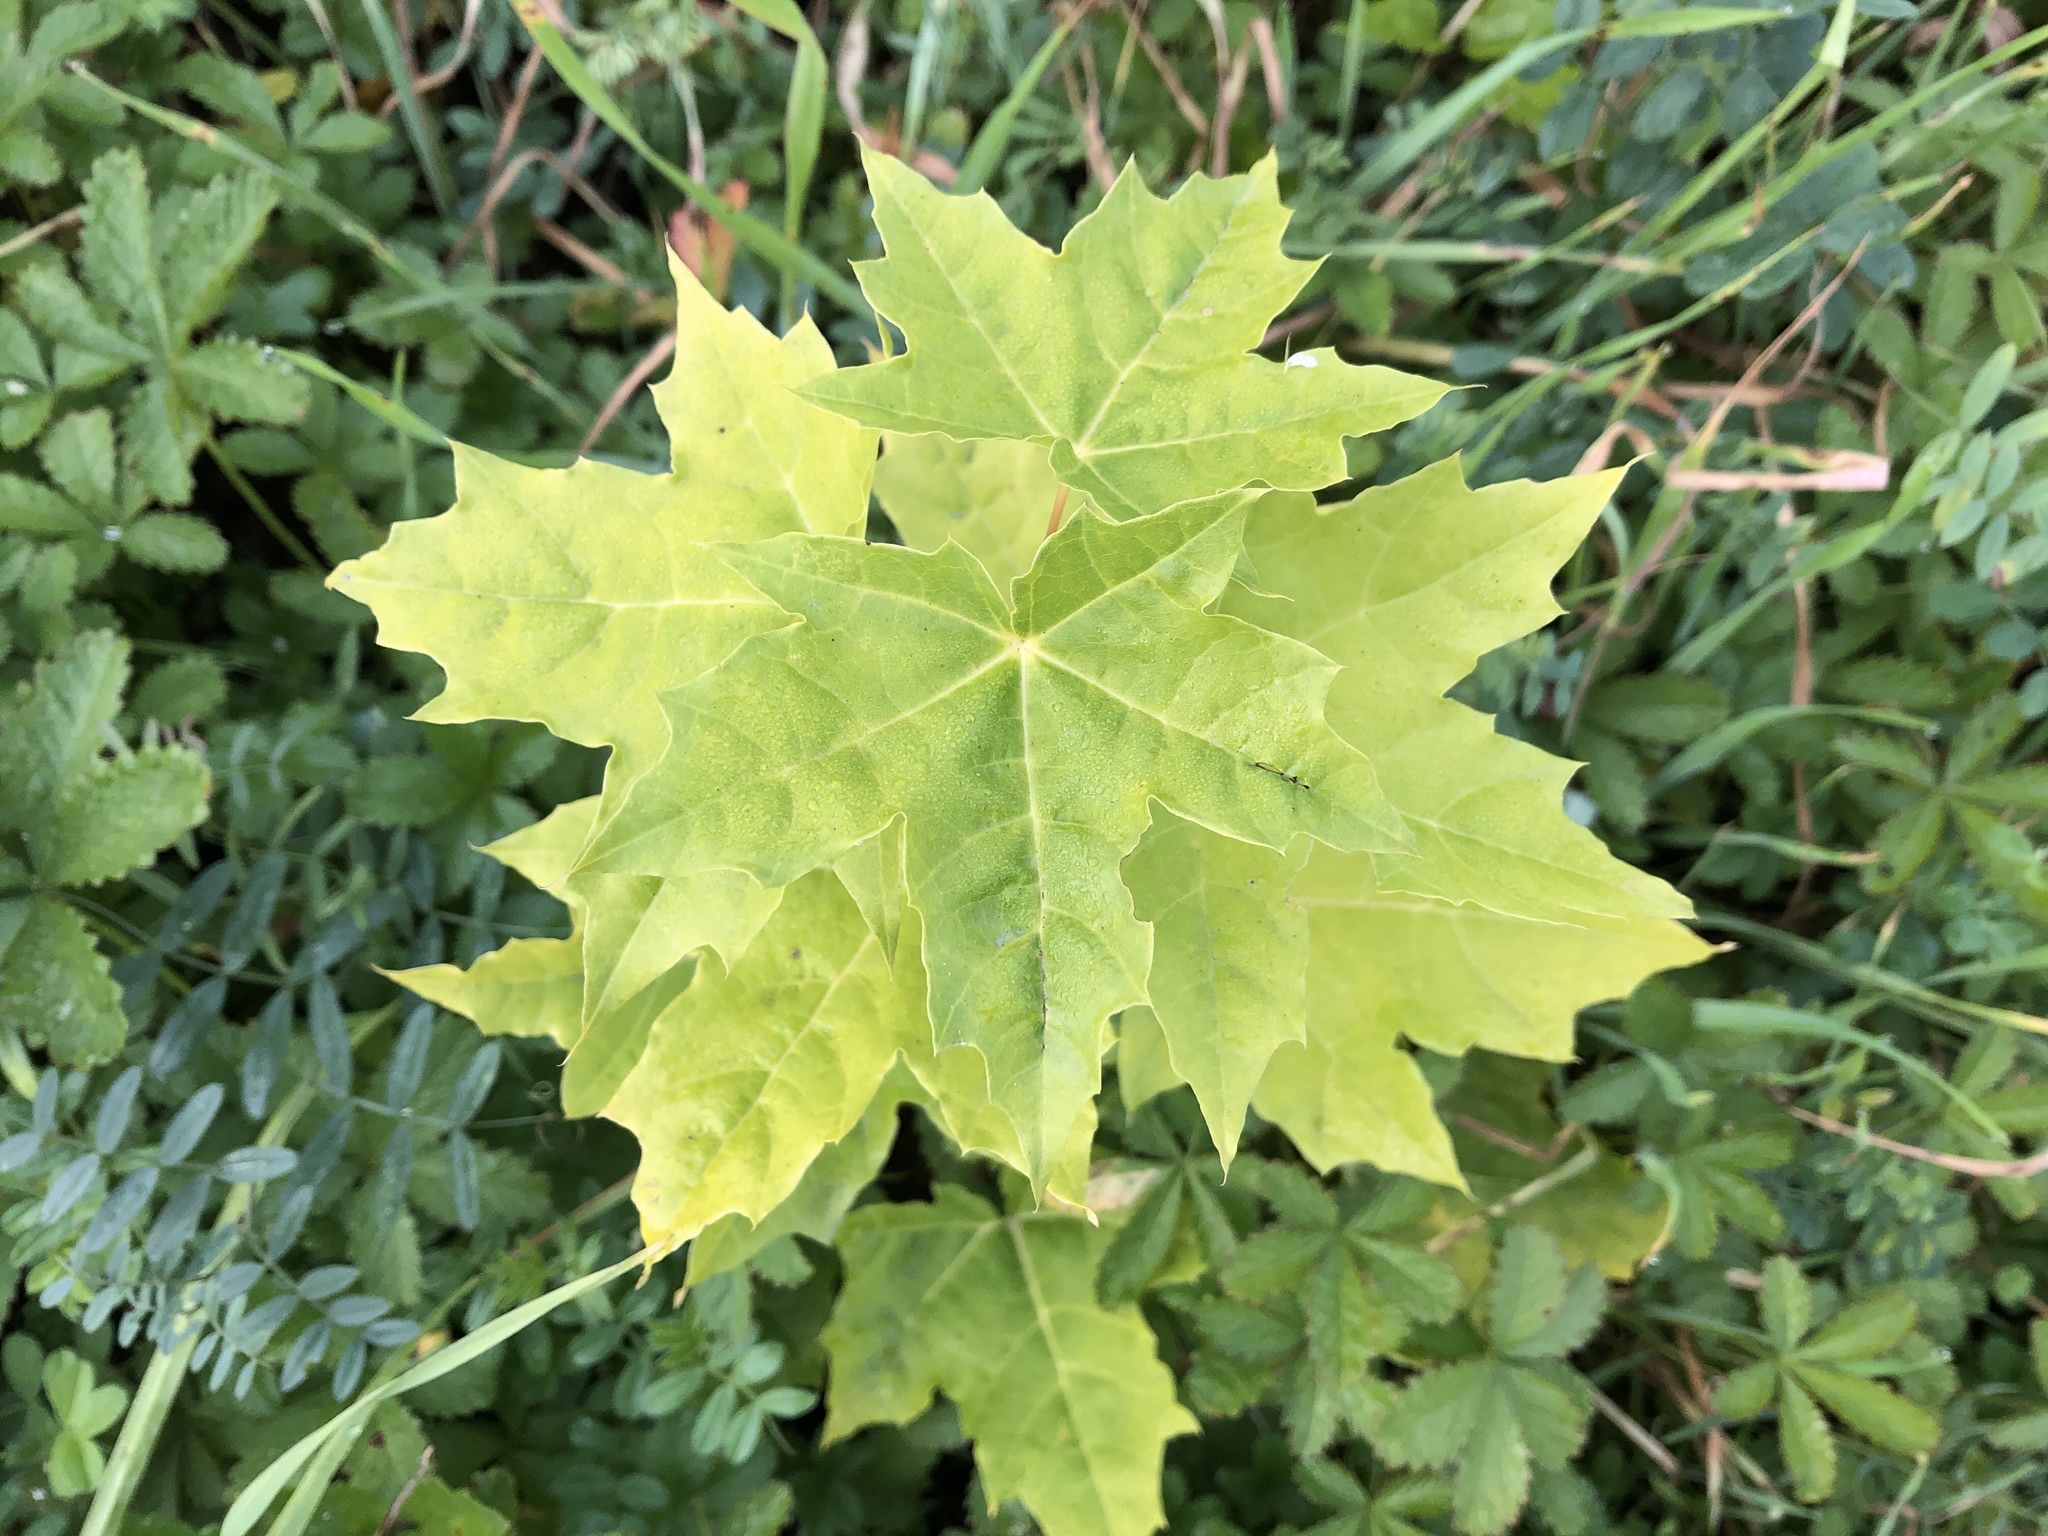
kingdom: Plantae
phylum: Tracheophyta
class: Magnoliopsida
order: Sapindales
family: Sapindaceae
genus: Acer
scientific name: Acer platanoides
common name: Norway maple
